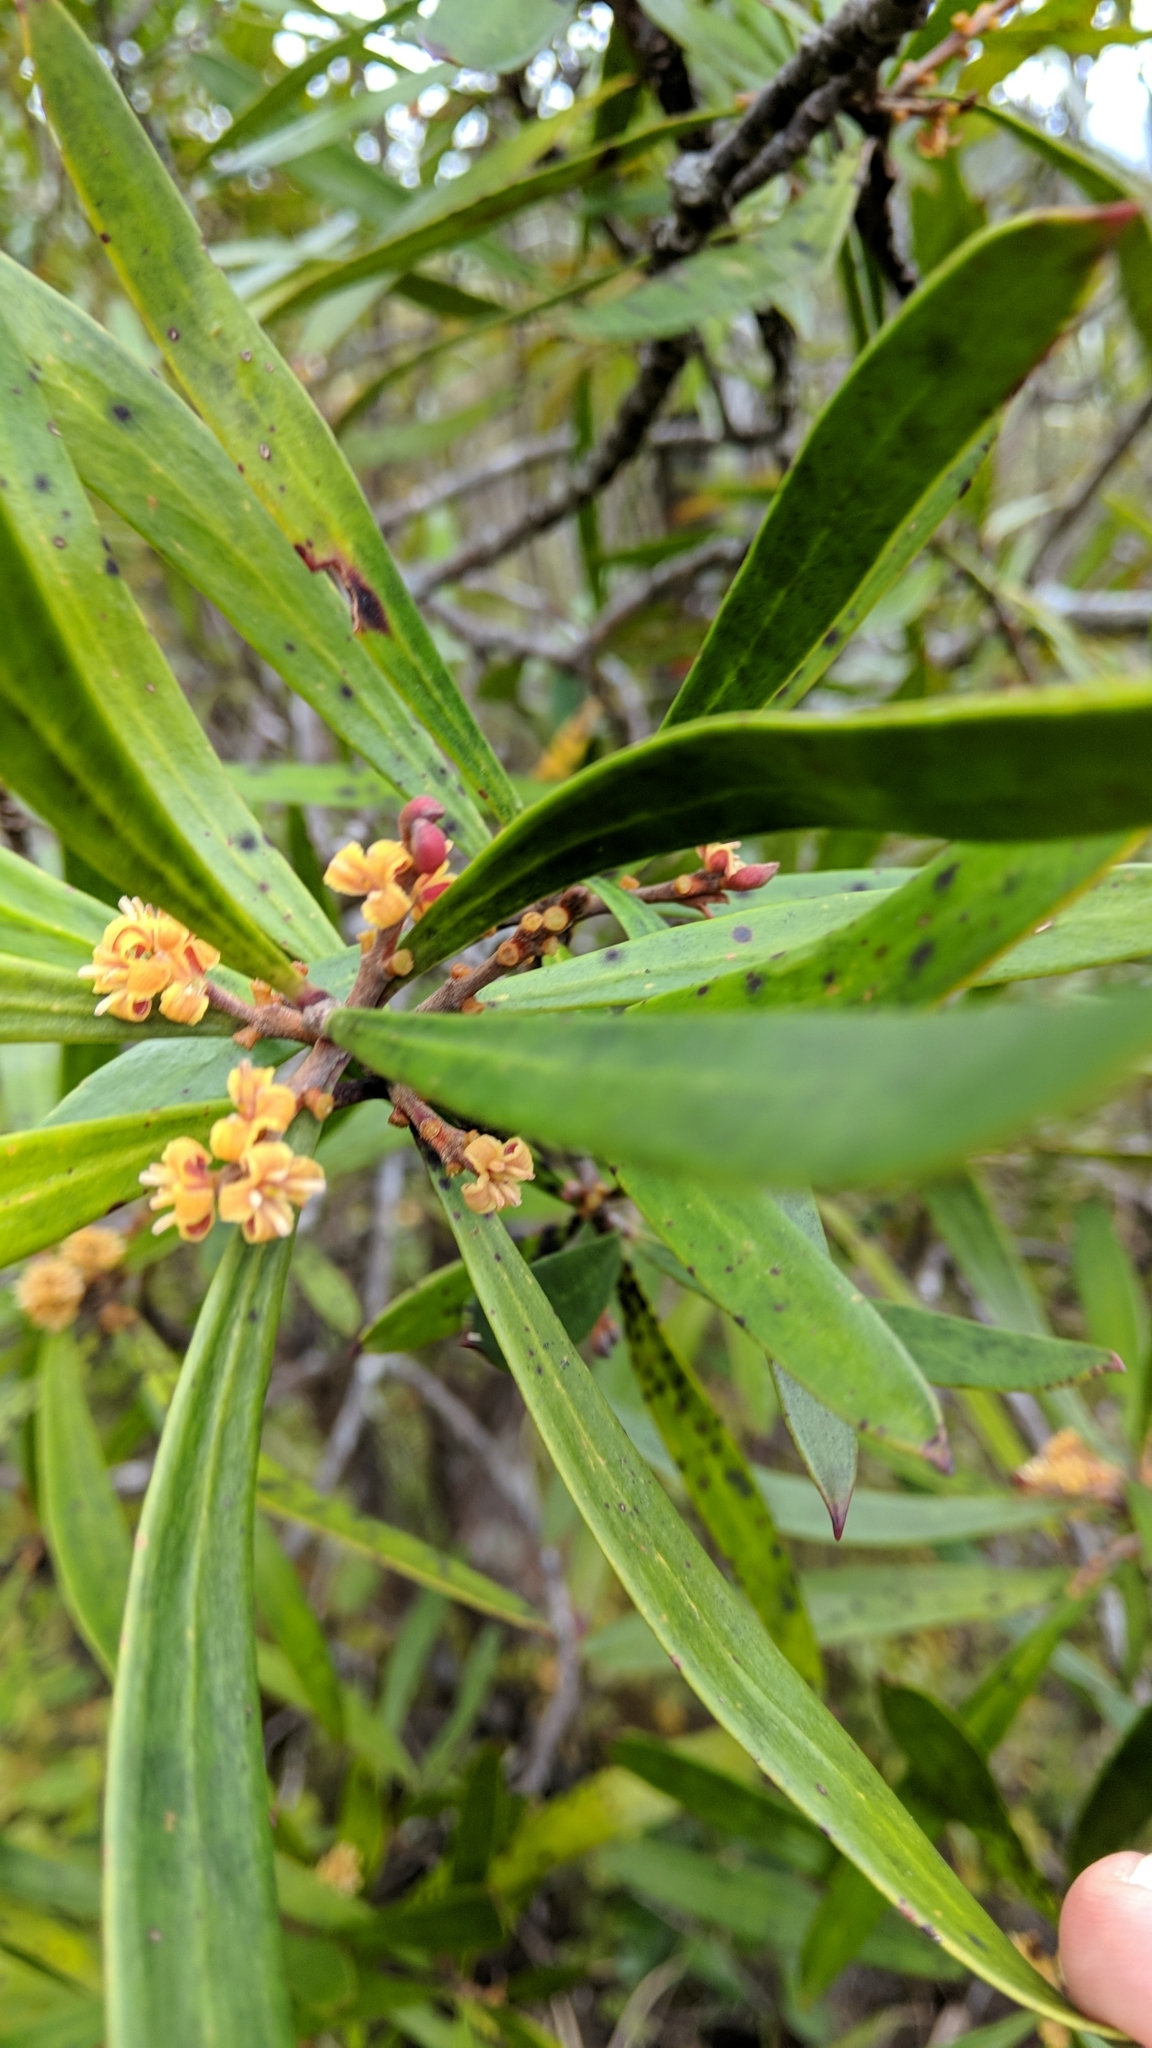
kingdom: Plantae
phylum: Tracheophyta
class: Magnoliopsida
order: Proteales
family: Proteaceae
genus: Toronia
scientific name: Toronia toru
